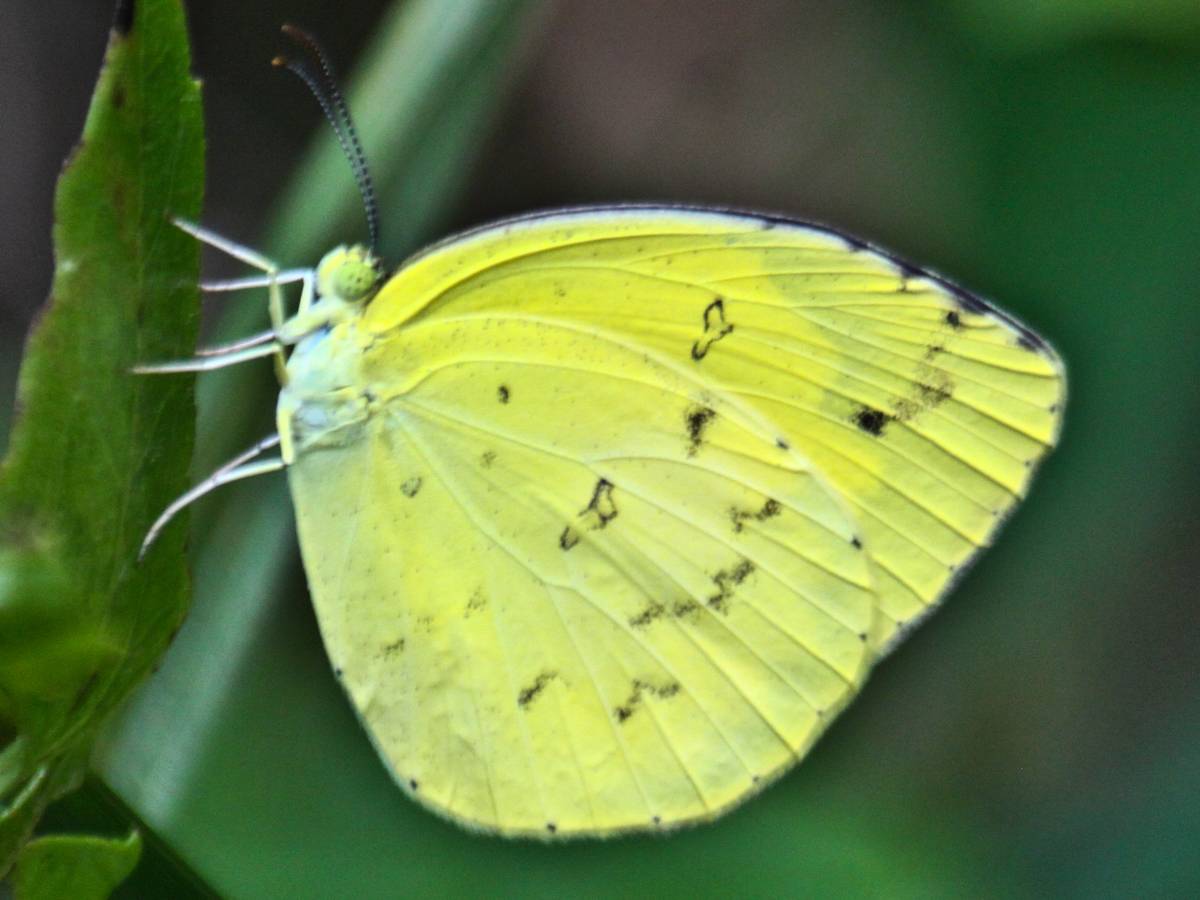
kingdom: Animalia
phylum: Arthropoda
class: Insecta
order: Lepidoptera
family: Pieridae
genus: Eurema
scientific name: Eurema hecabe
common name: Pale grass yellow
